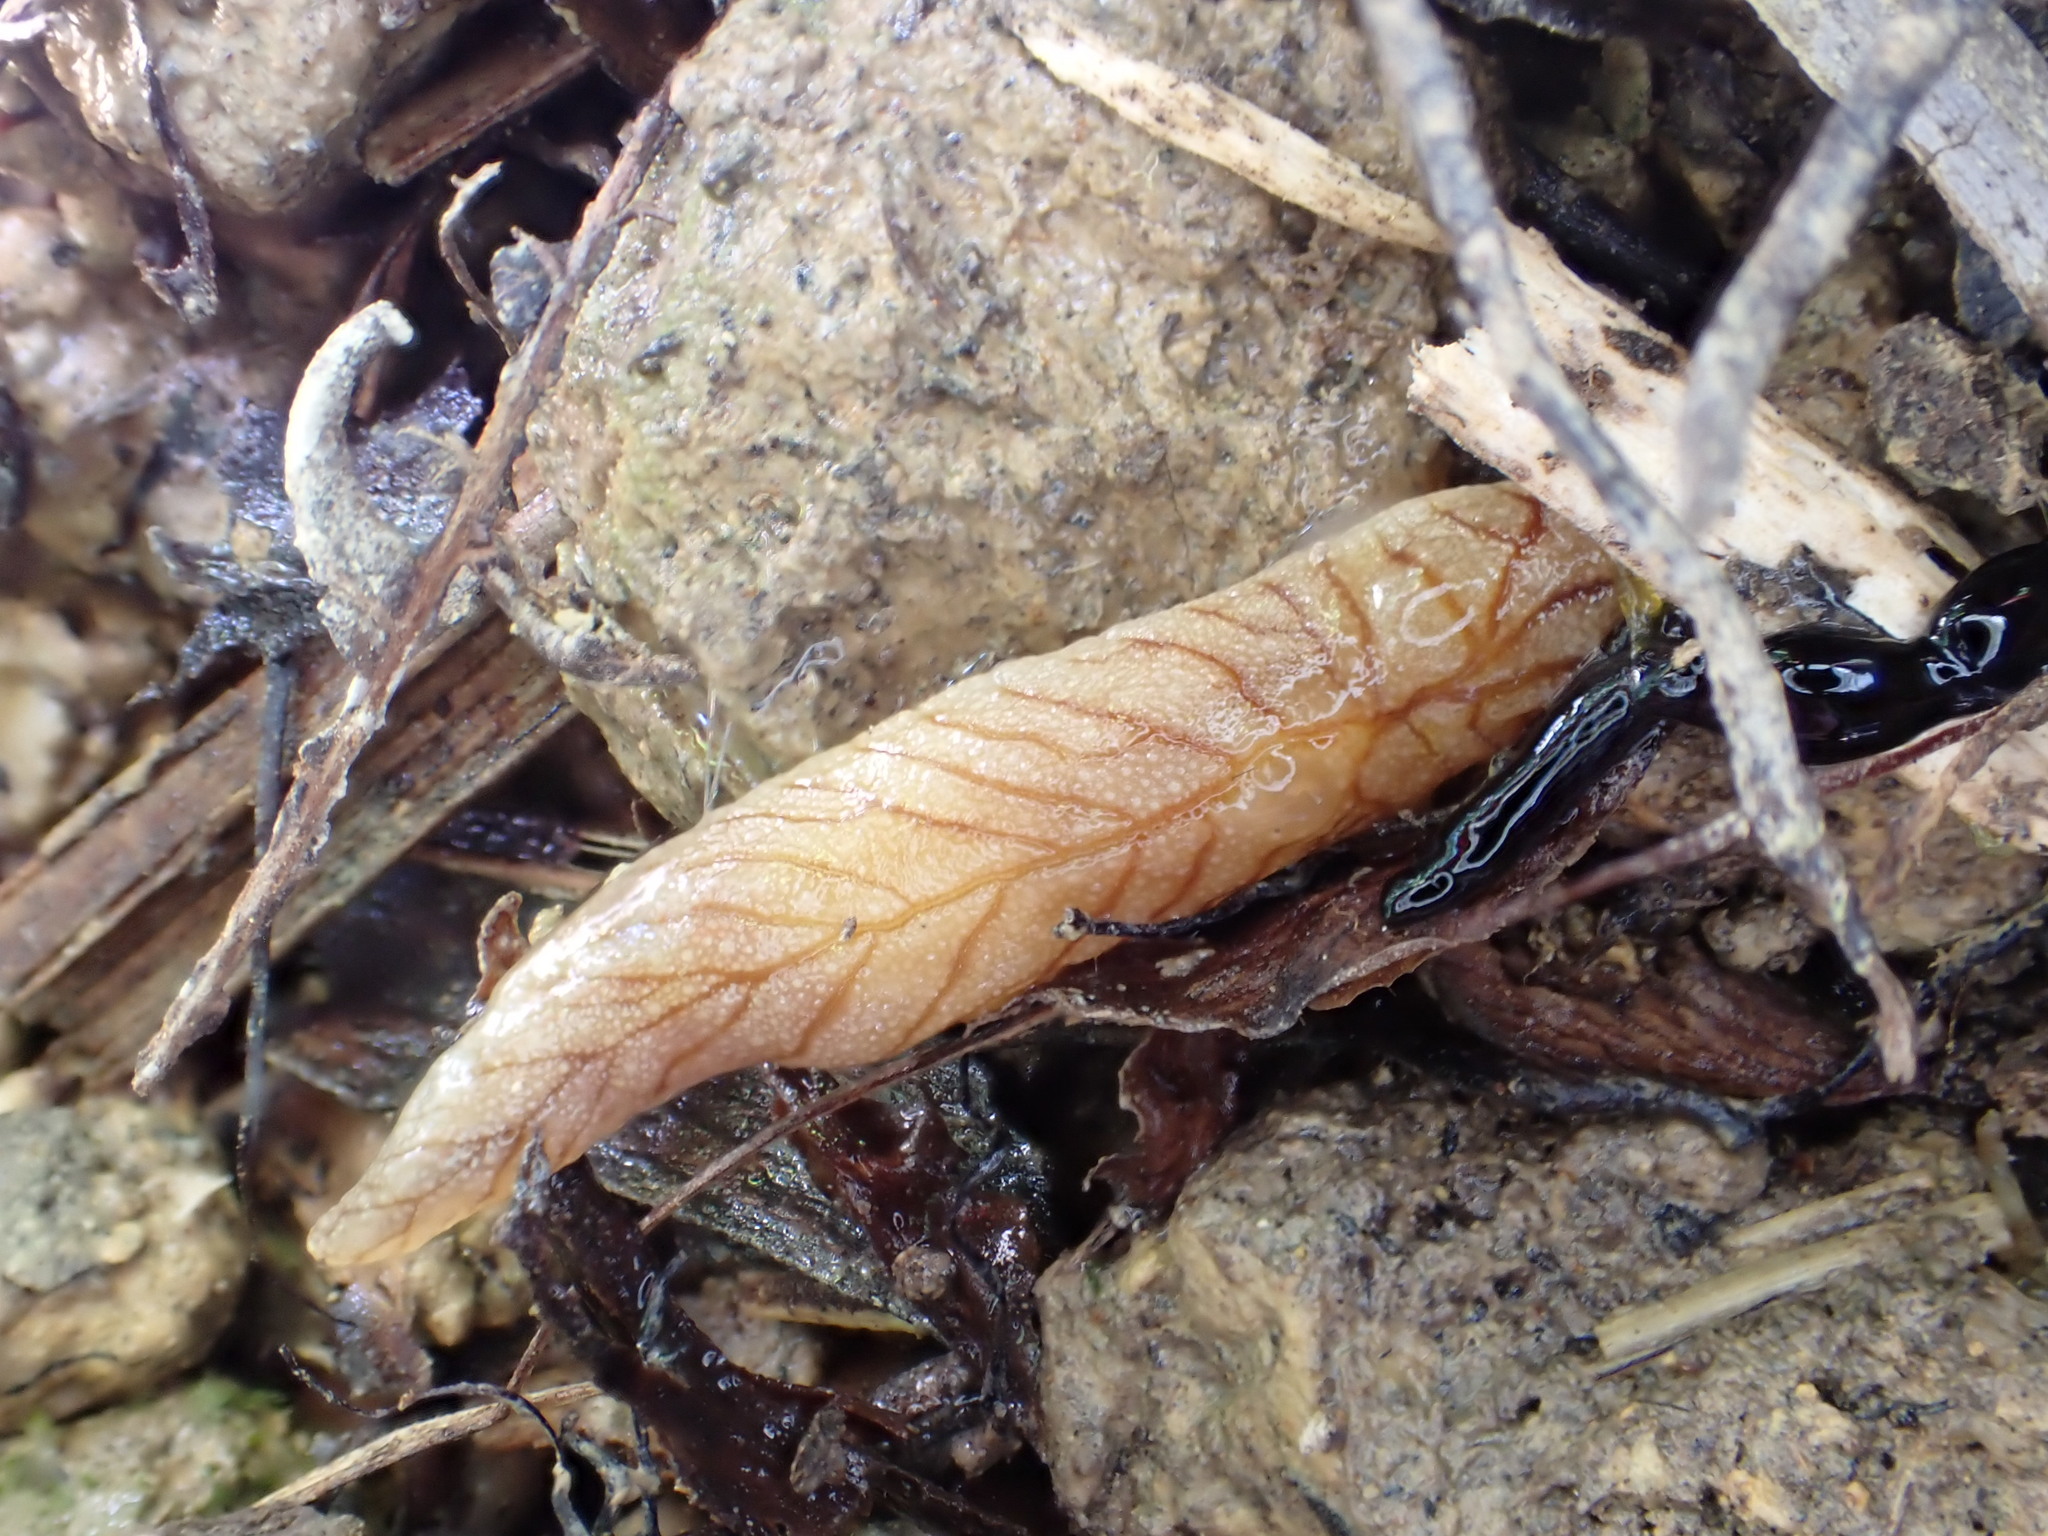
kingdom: Animalia
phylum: Mollusca
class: Gastropoda
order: Stylommatophora
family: Athoracophoridae
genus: Athoracophorus
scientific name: Athoracophorus
